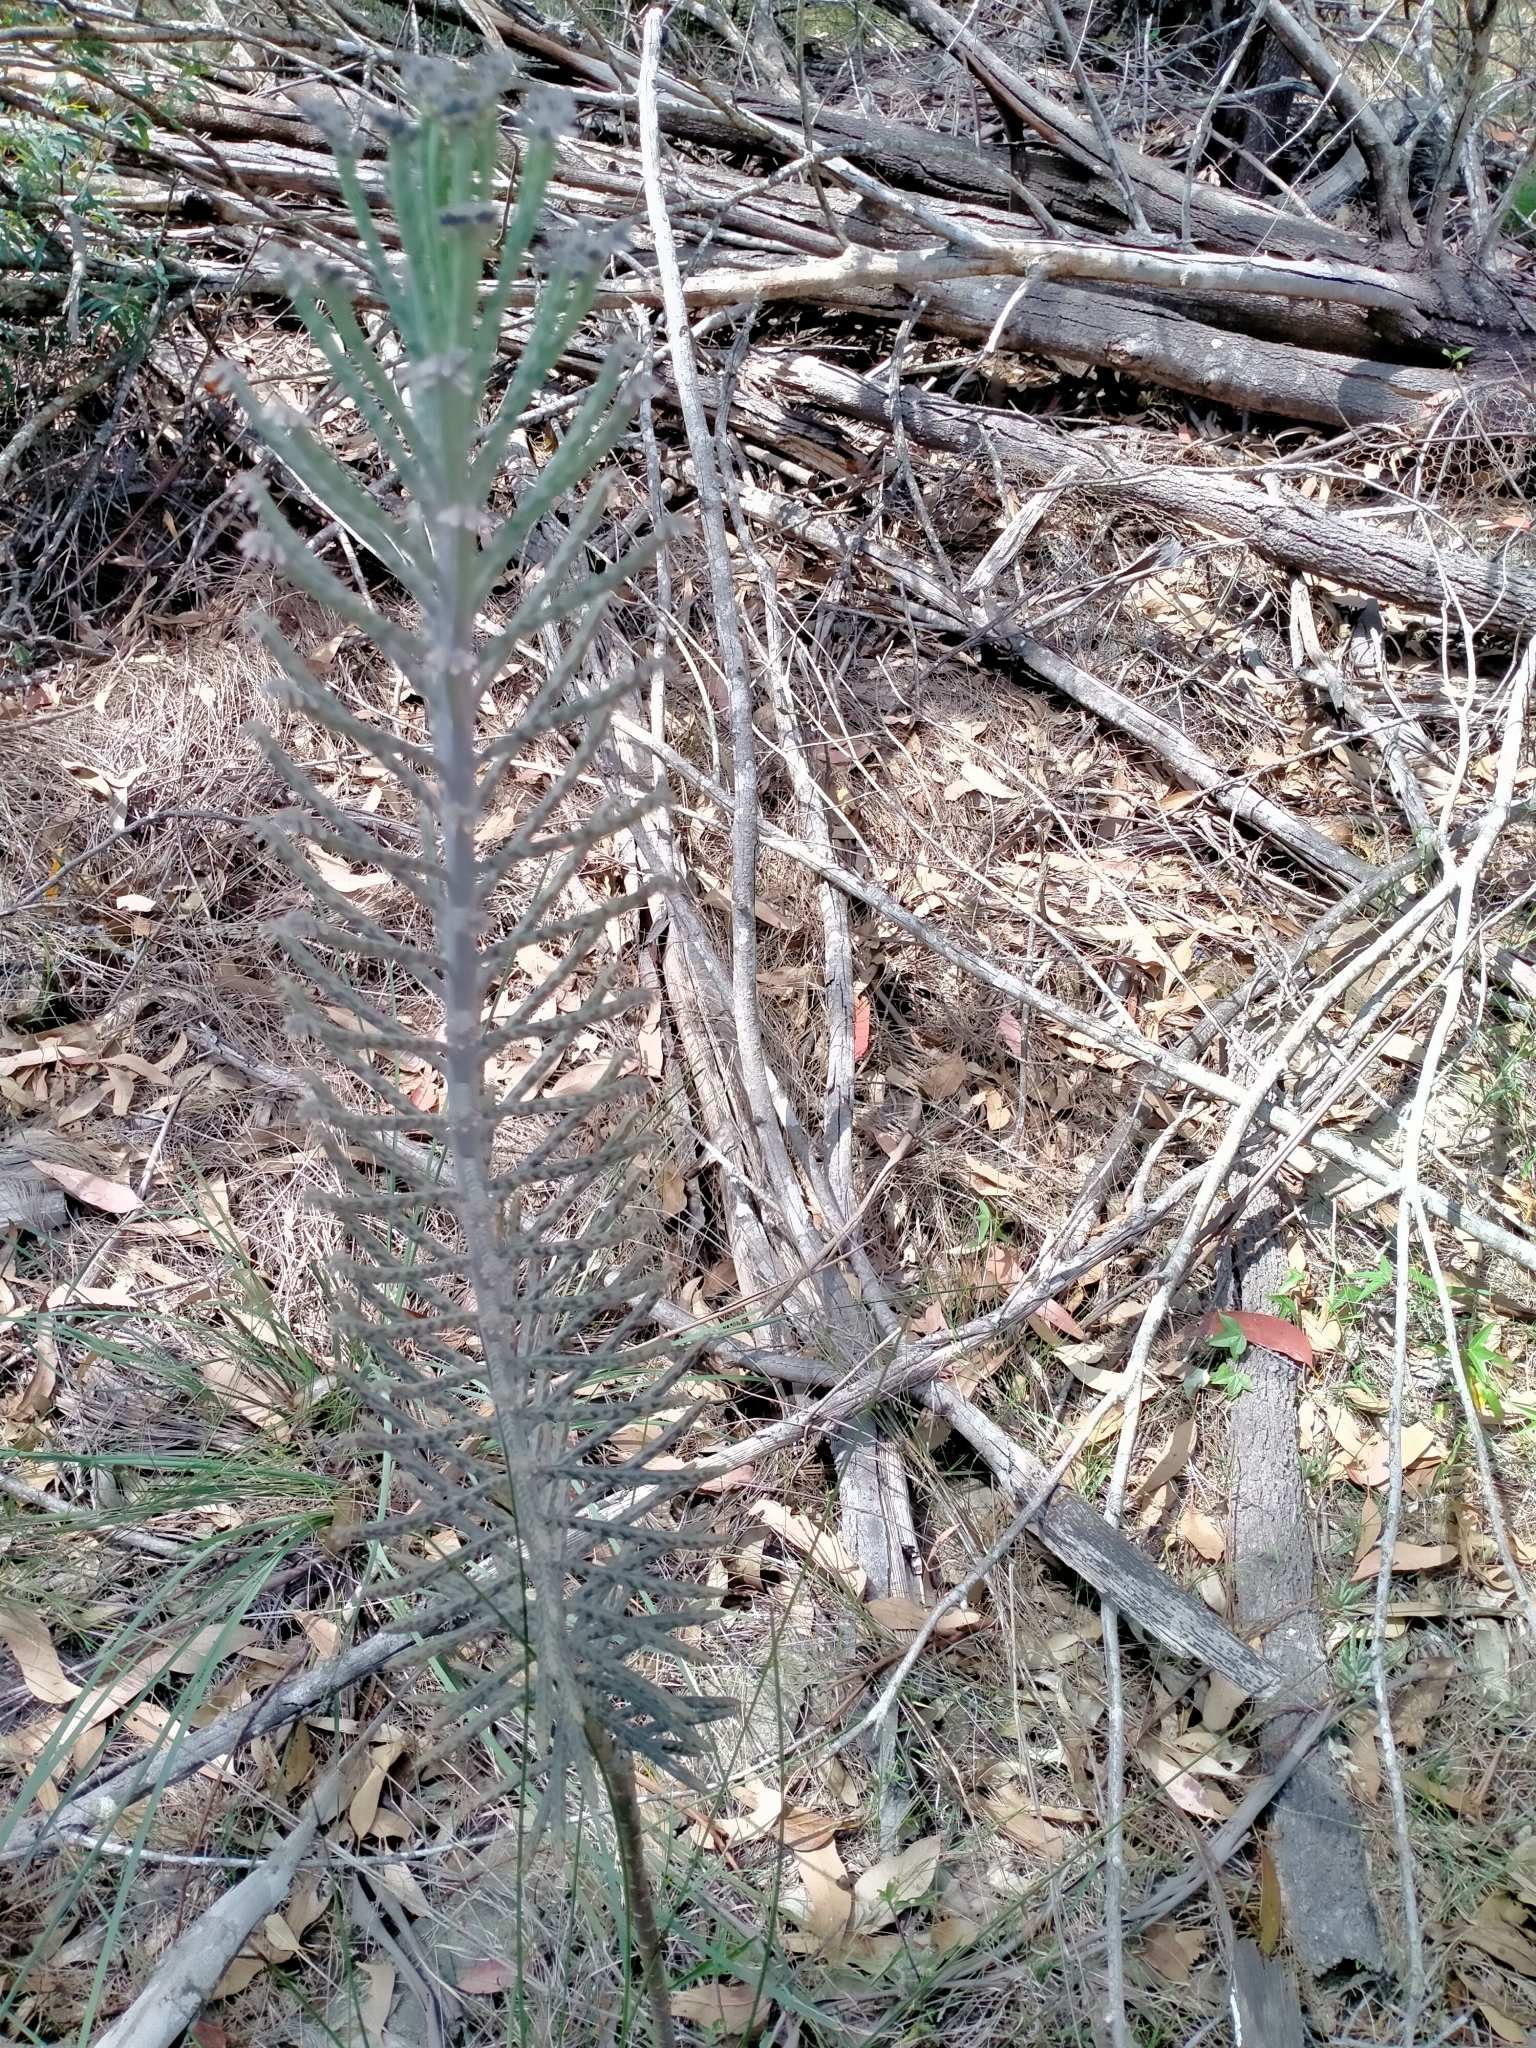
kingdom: Plantae
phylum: Tracheophyta
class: Magnoliopsida
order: Saxifragales
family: Crassulaceae
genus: Kalanchoe
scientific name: Kalanchoe delagoensis
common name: Chandelier plant
